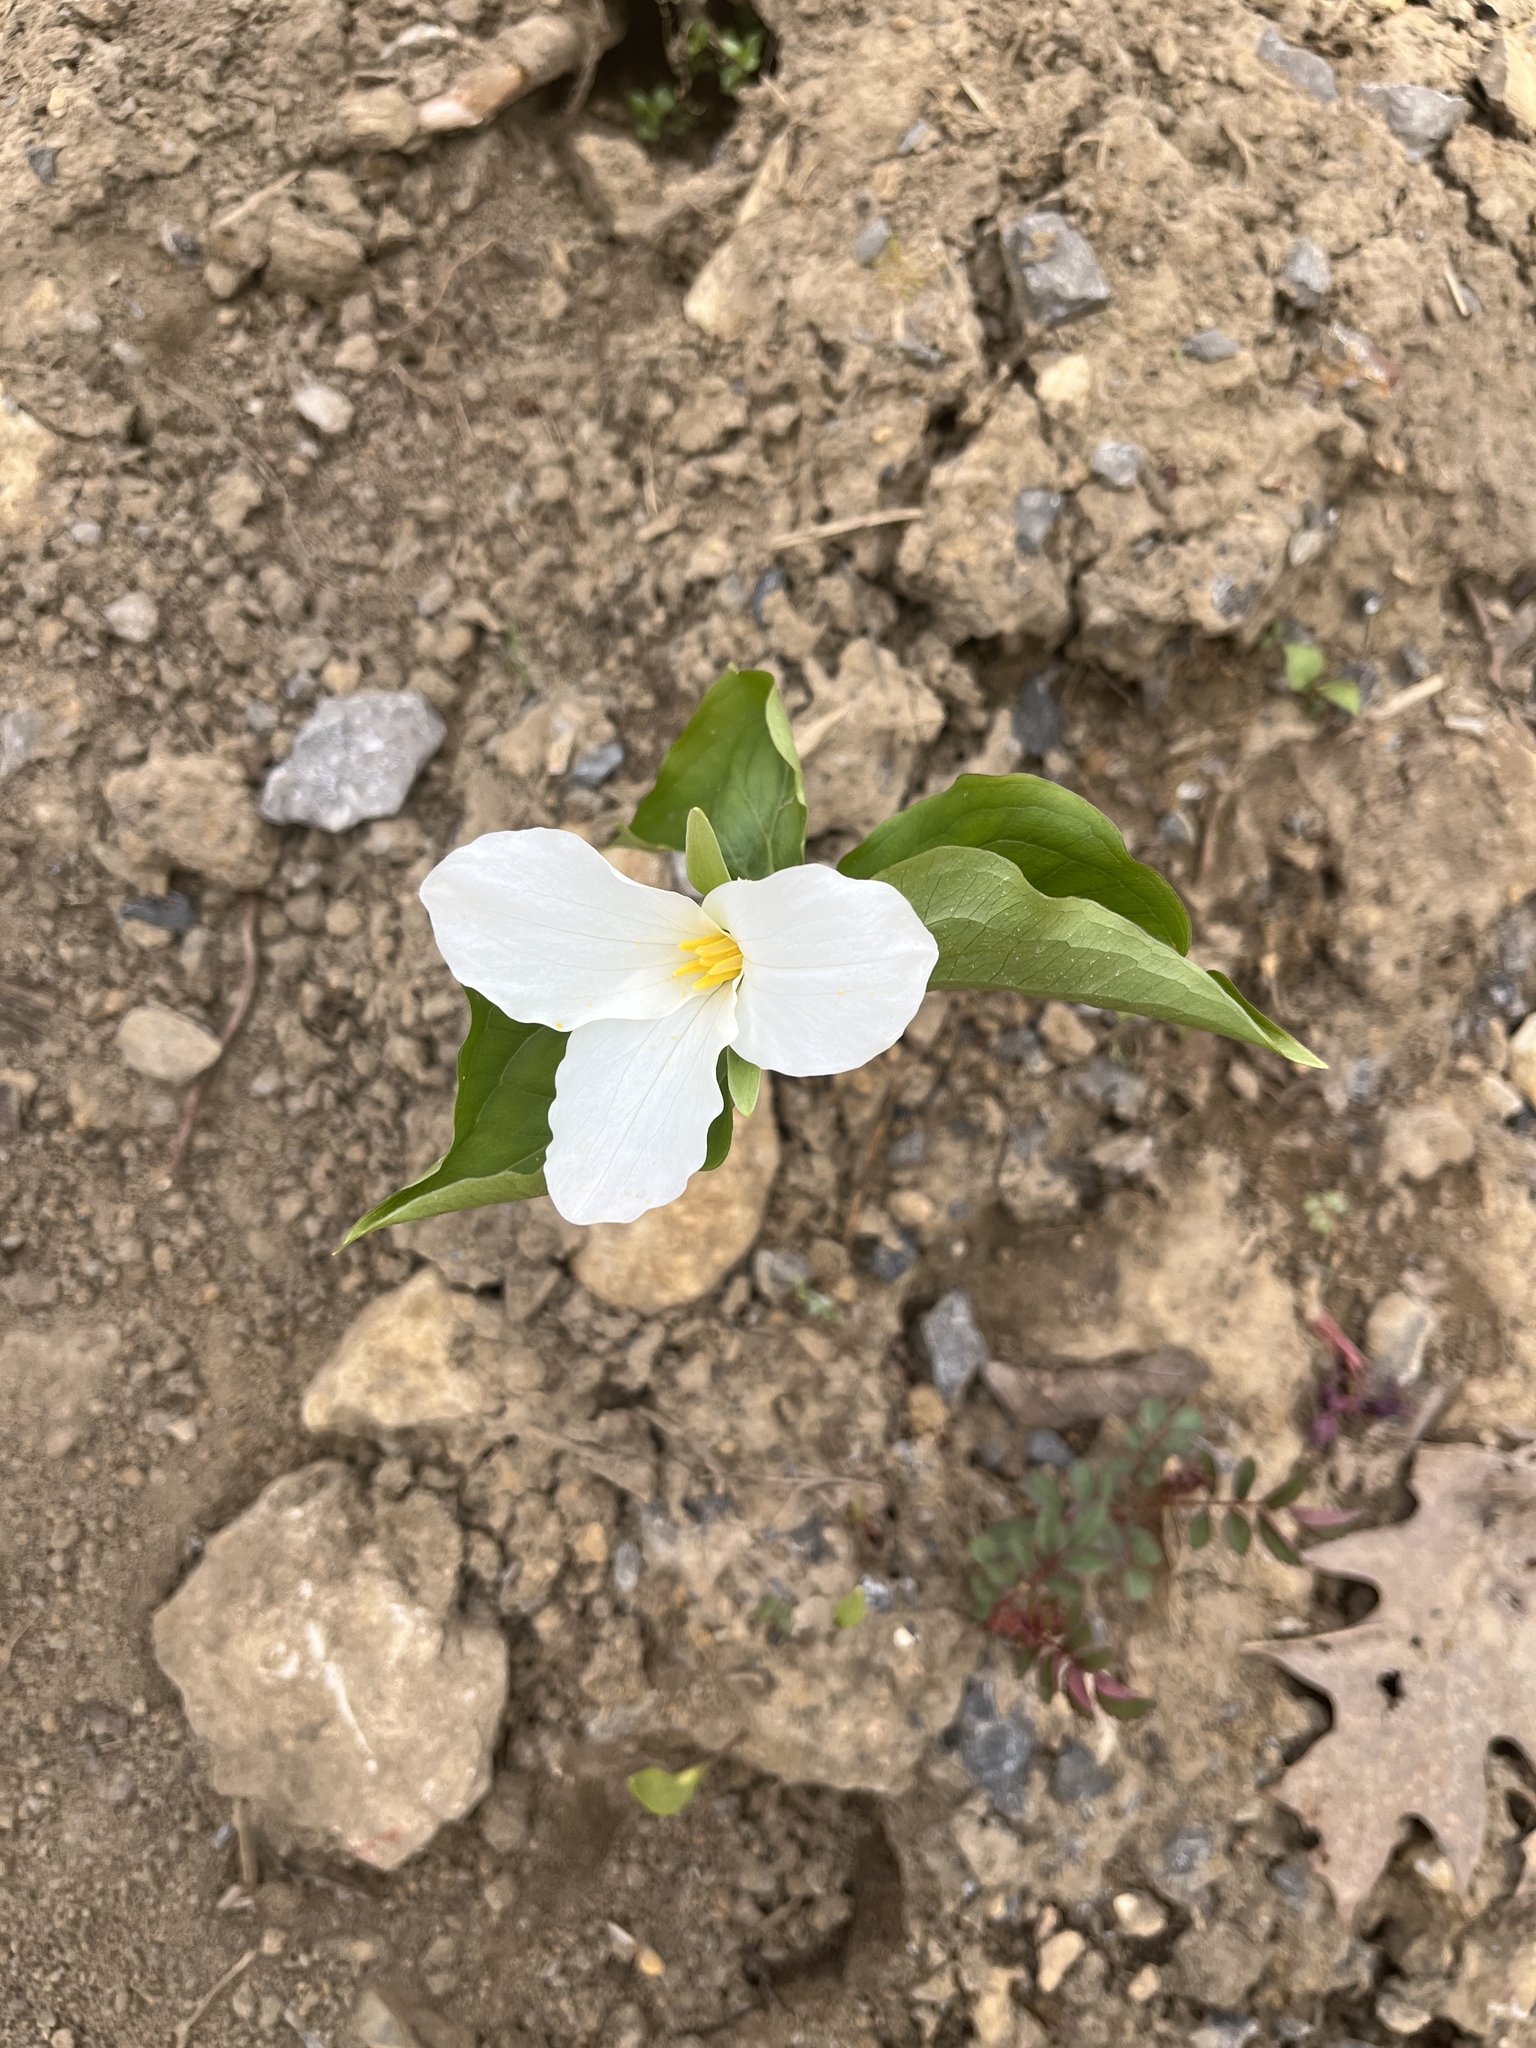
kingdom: Plantae
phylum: Tracheophyta
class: Liliopsida
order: Liliales
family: Melanthiaceae
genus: Trillium
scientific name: Trillium grandiflorum
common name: Great white trillium
